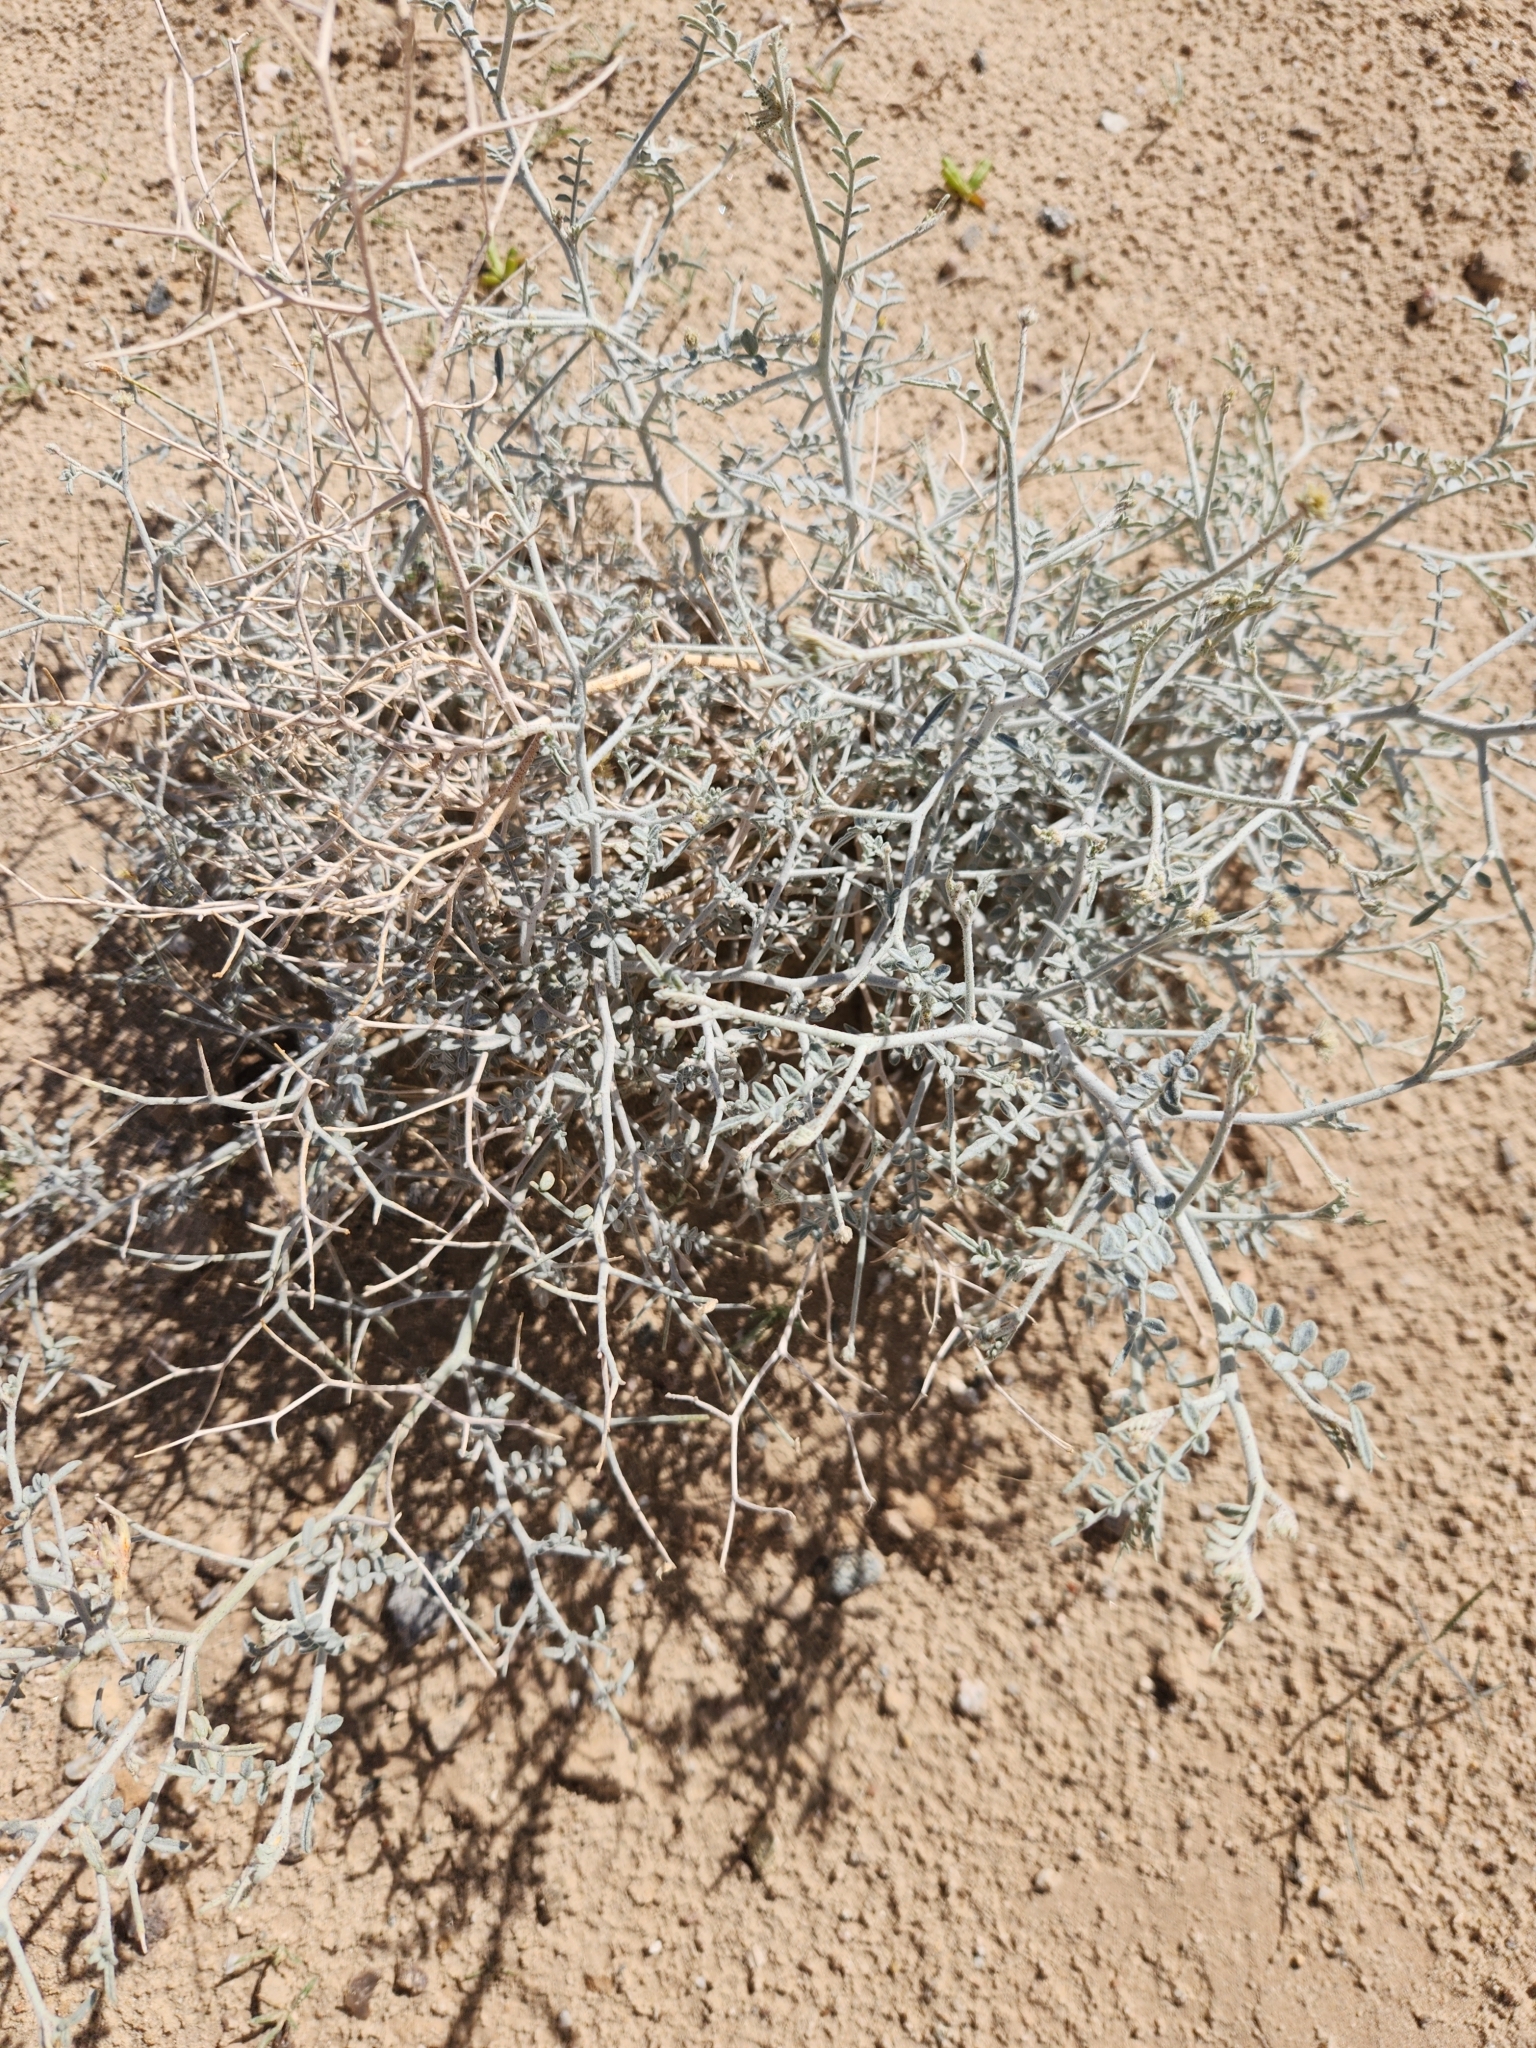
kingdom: Plantae
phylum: Tracheophyta
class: Magnoliopsida
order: Fabales
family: Fabaceae
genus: Psorothamnus
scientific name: Psorothamnus emoryi
